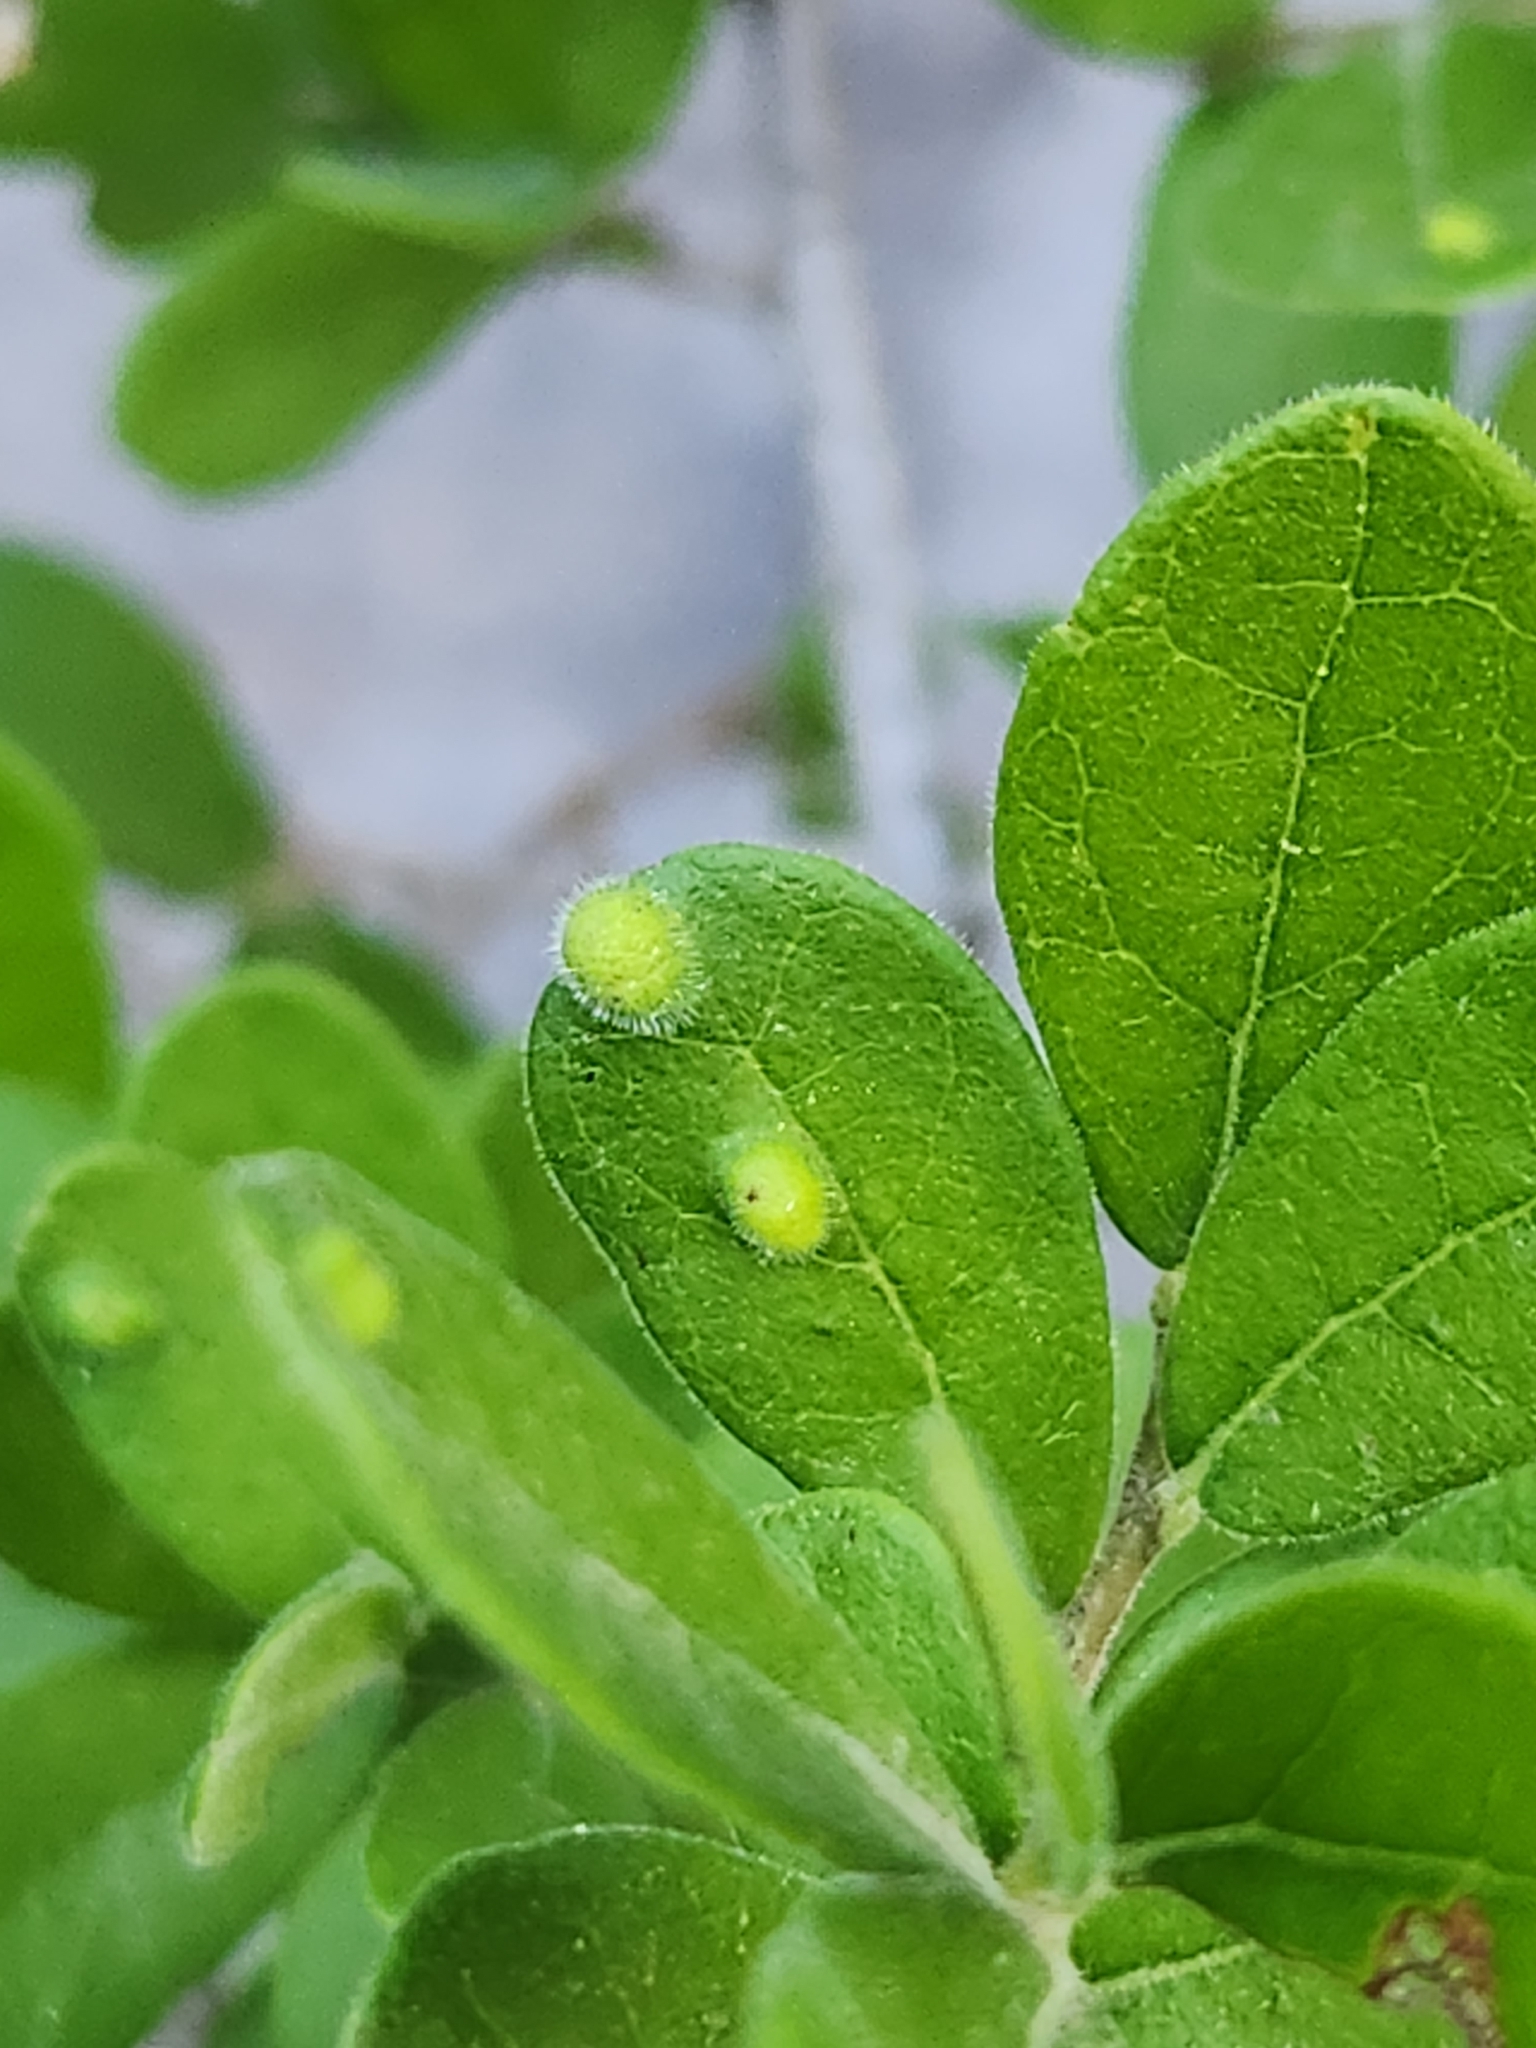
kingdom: Animalia
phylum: Arthropoda
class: Arachnida
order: Trombidiformes
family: Eriophyidae
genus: Aceria
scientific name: Aceria
